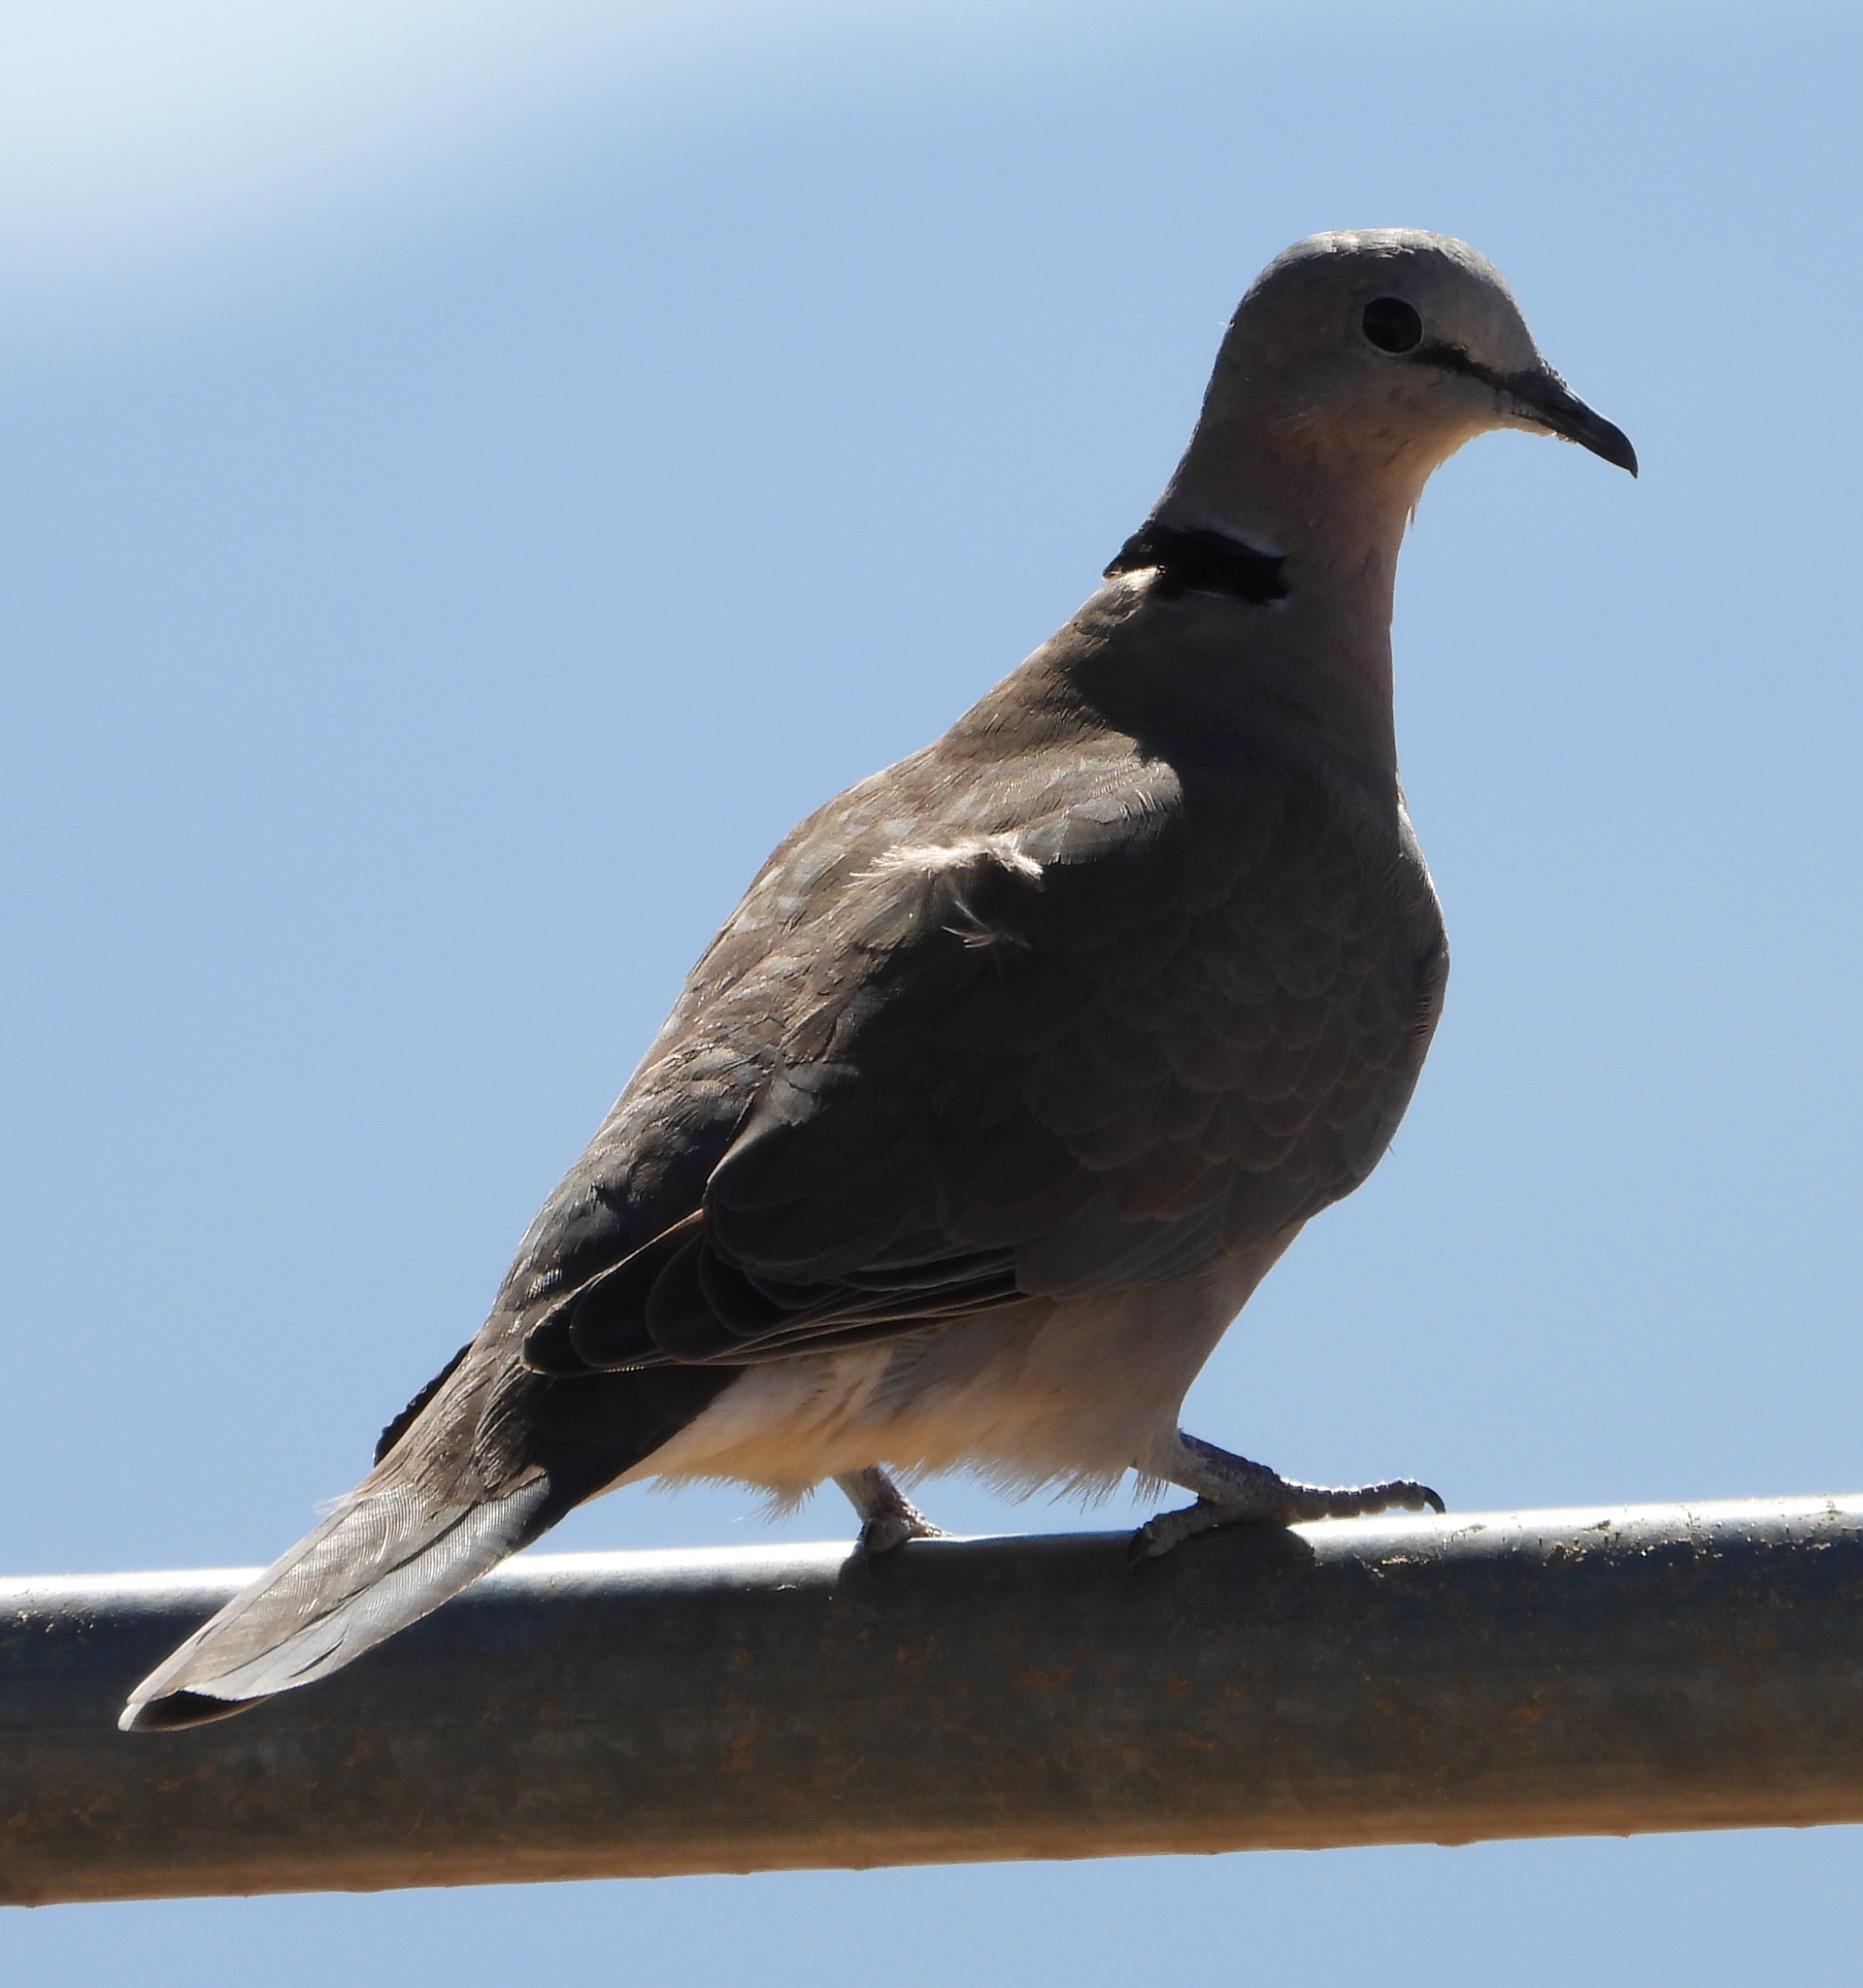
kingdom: Animalia
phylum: Chordata
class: Aves
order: Columbiformes
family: Columbidae
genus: Streptopelia
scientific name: Streptopelia capicola
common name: Ring-necked dove
